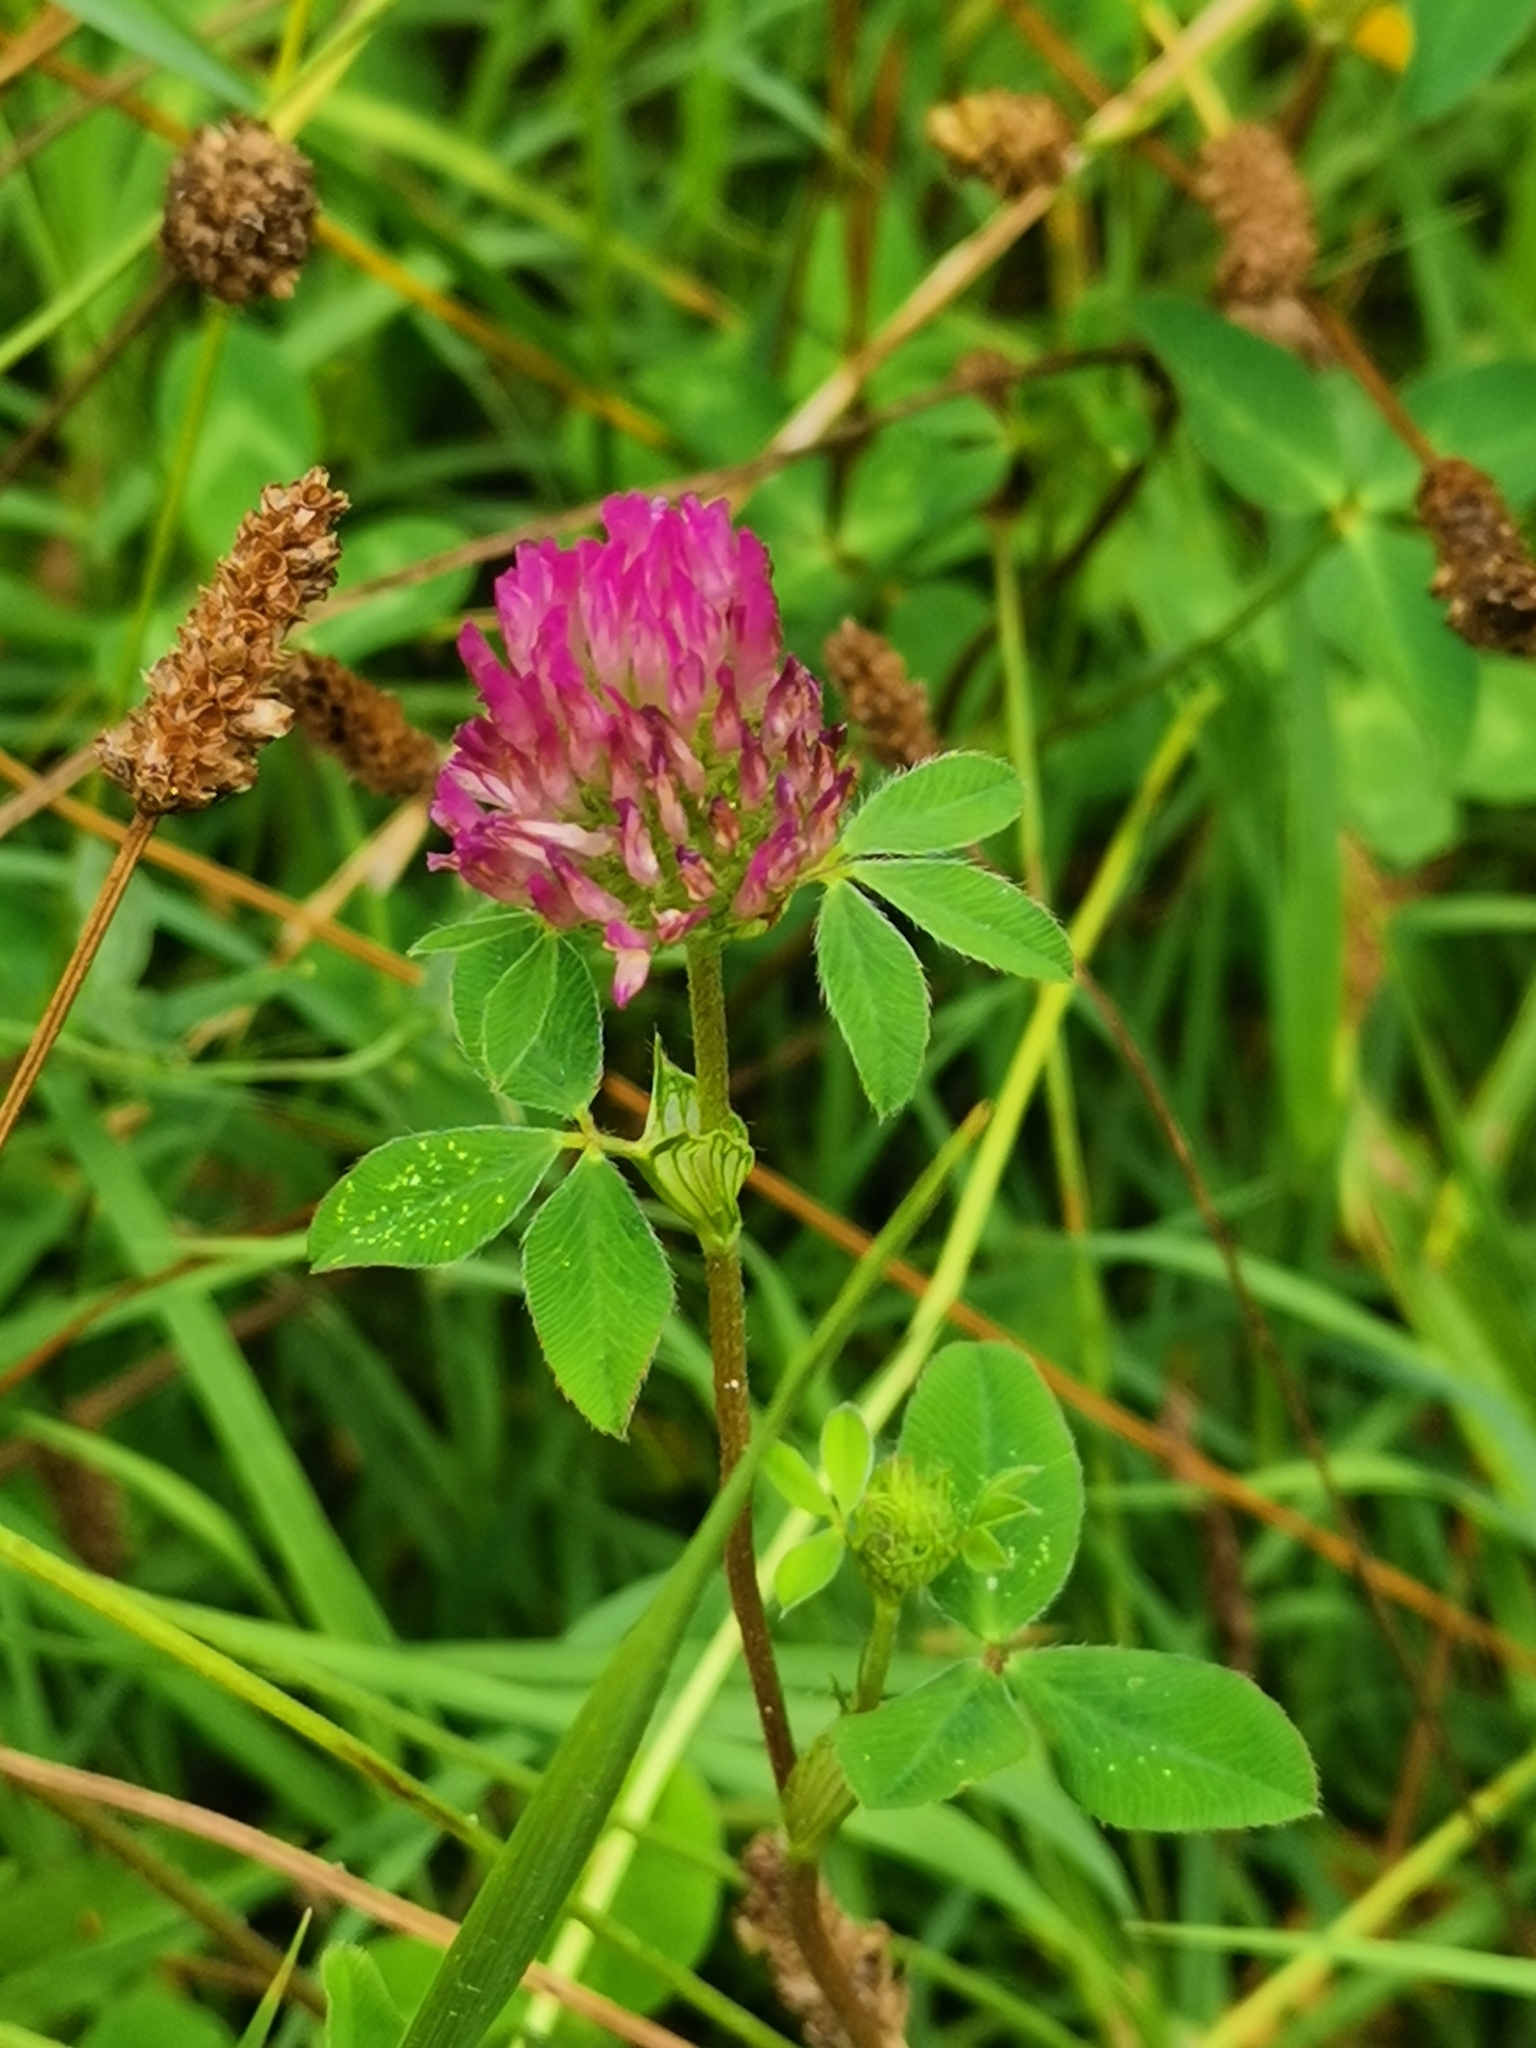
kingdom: Plantae
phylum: Tracheophyta
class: Magnoliopsida
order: Fabales
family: Fabaceae
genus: Trifolium
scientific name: Trifolium pratense
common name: Red clover
